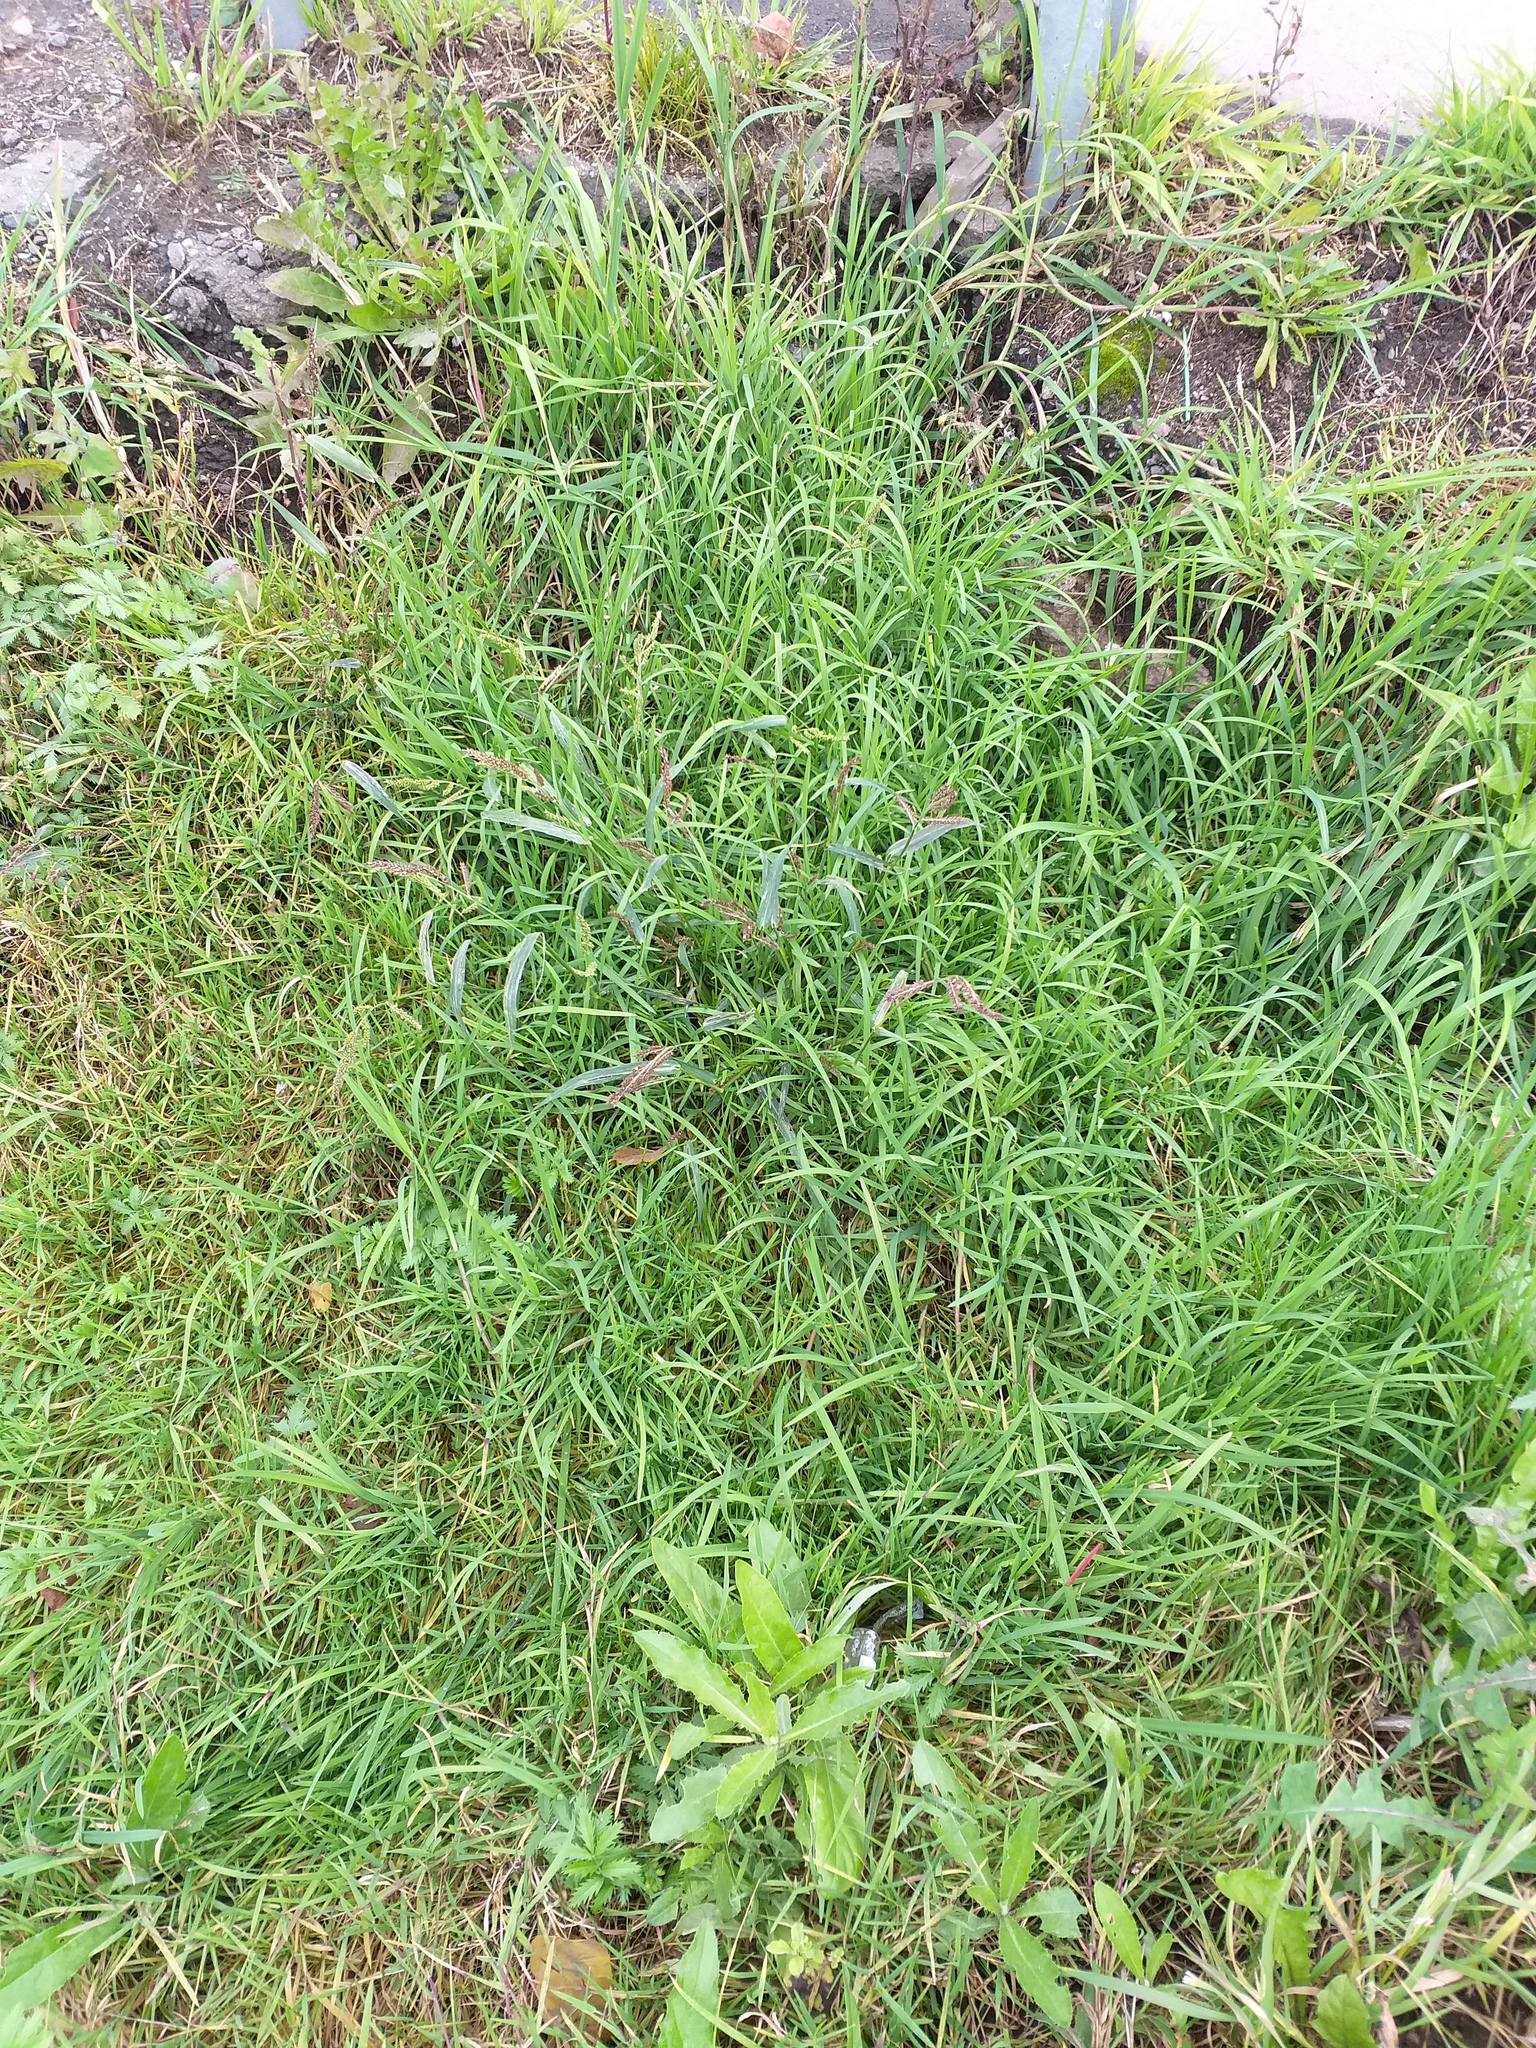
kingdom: Plantae
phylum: Tracheophyta
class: Liliopsida
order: Poales
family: Poaceae
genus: Echinochloa
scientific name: Echinochloa crus-galli
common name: Cockspur
